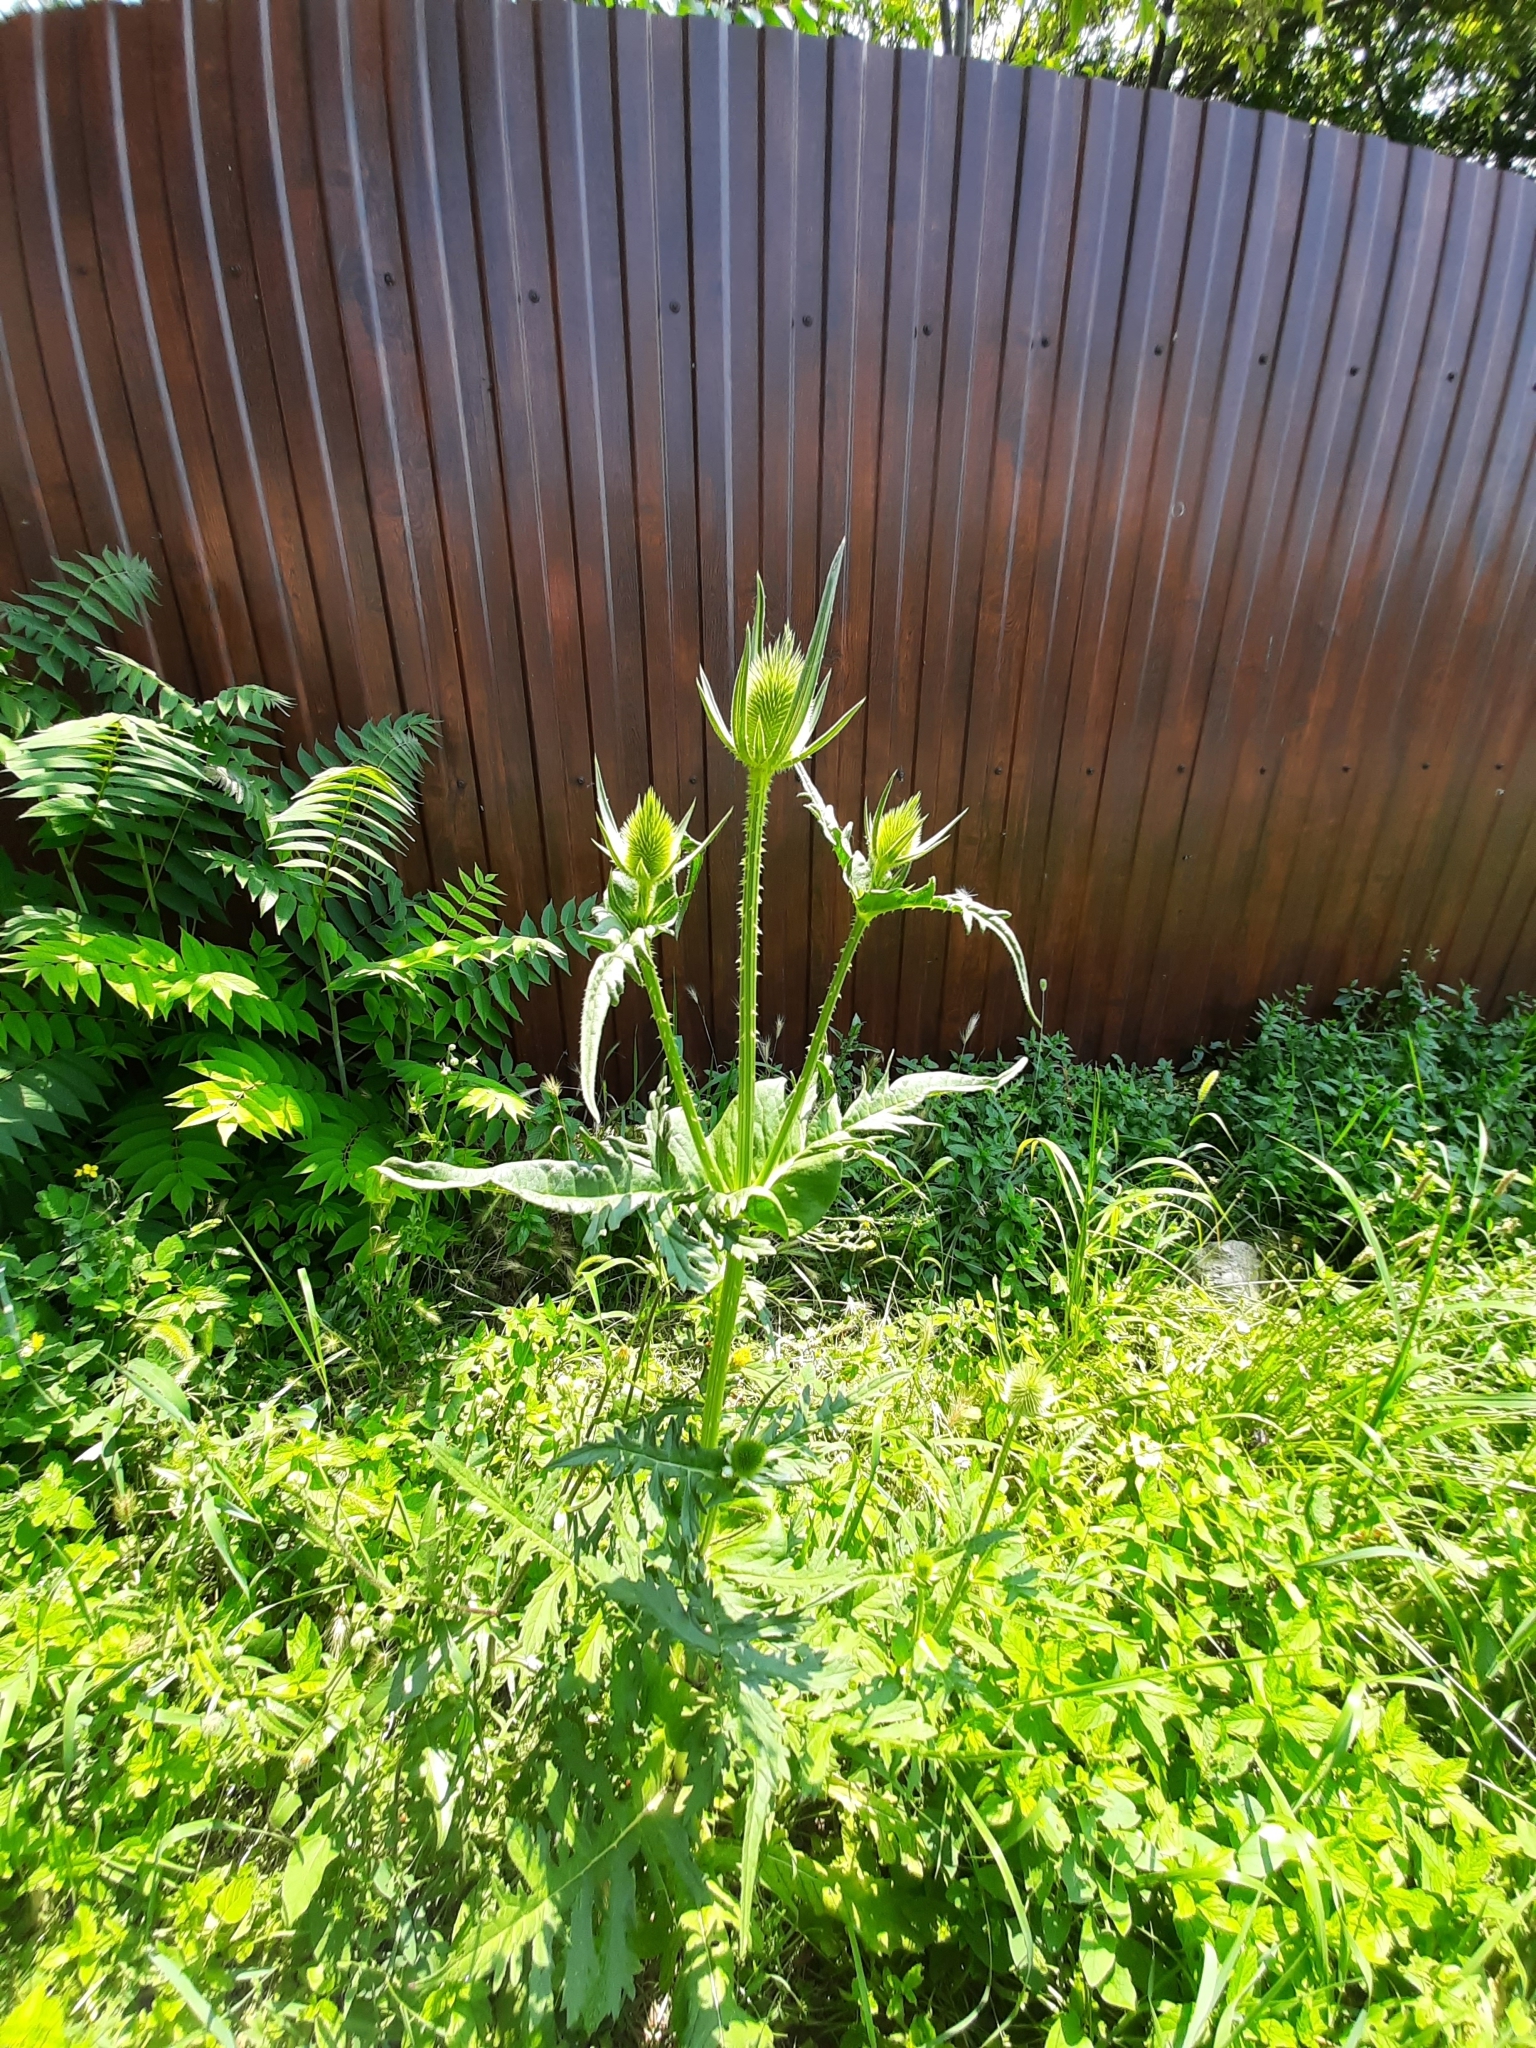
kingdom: Plantae
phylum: Tracheophyta
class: Magnoliopsida
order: Dipsacales
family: Caprifoliaceae
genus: Dipsacus
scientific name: Dipsacus laciniatus
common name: Cut-leaved teasel
